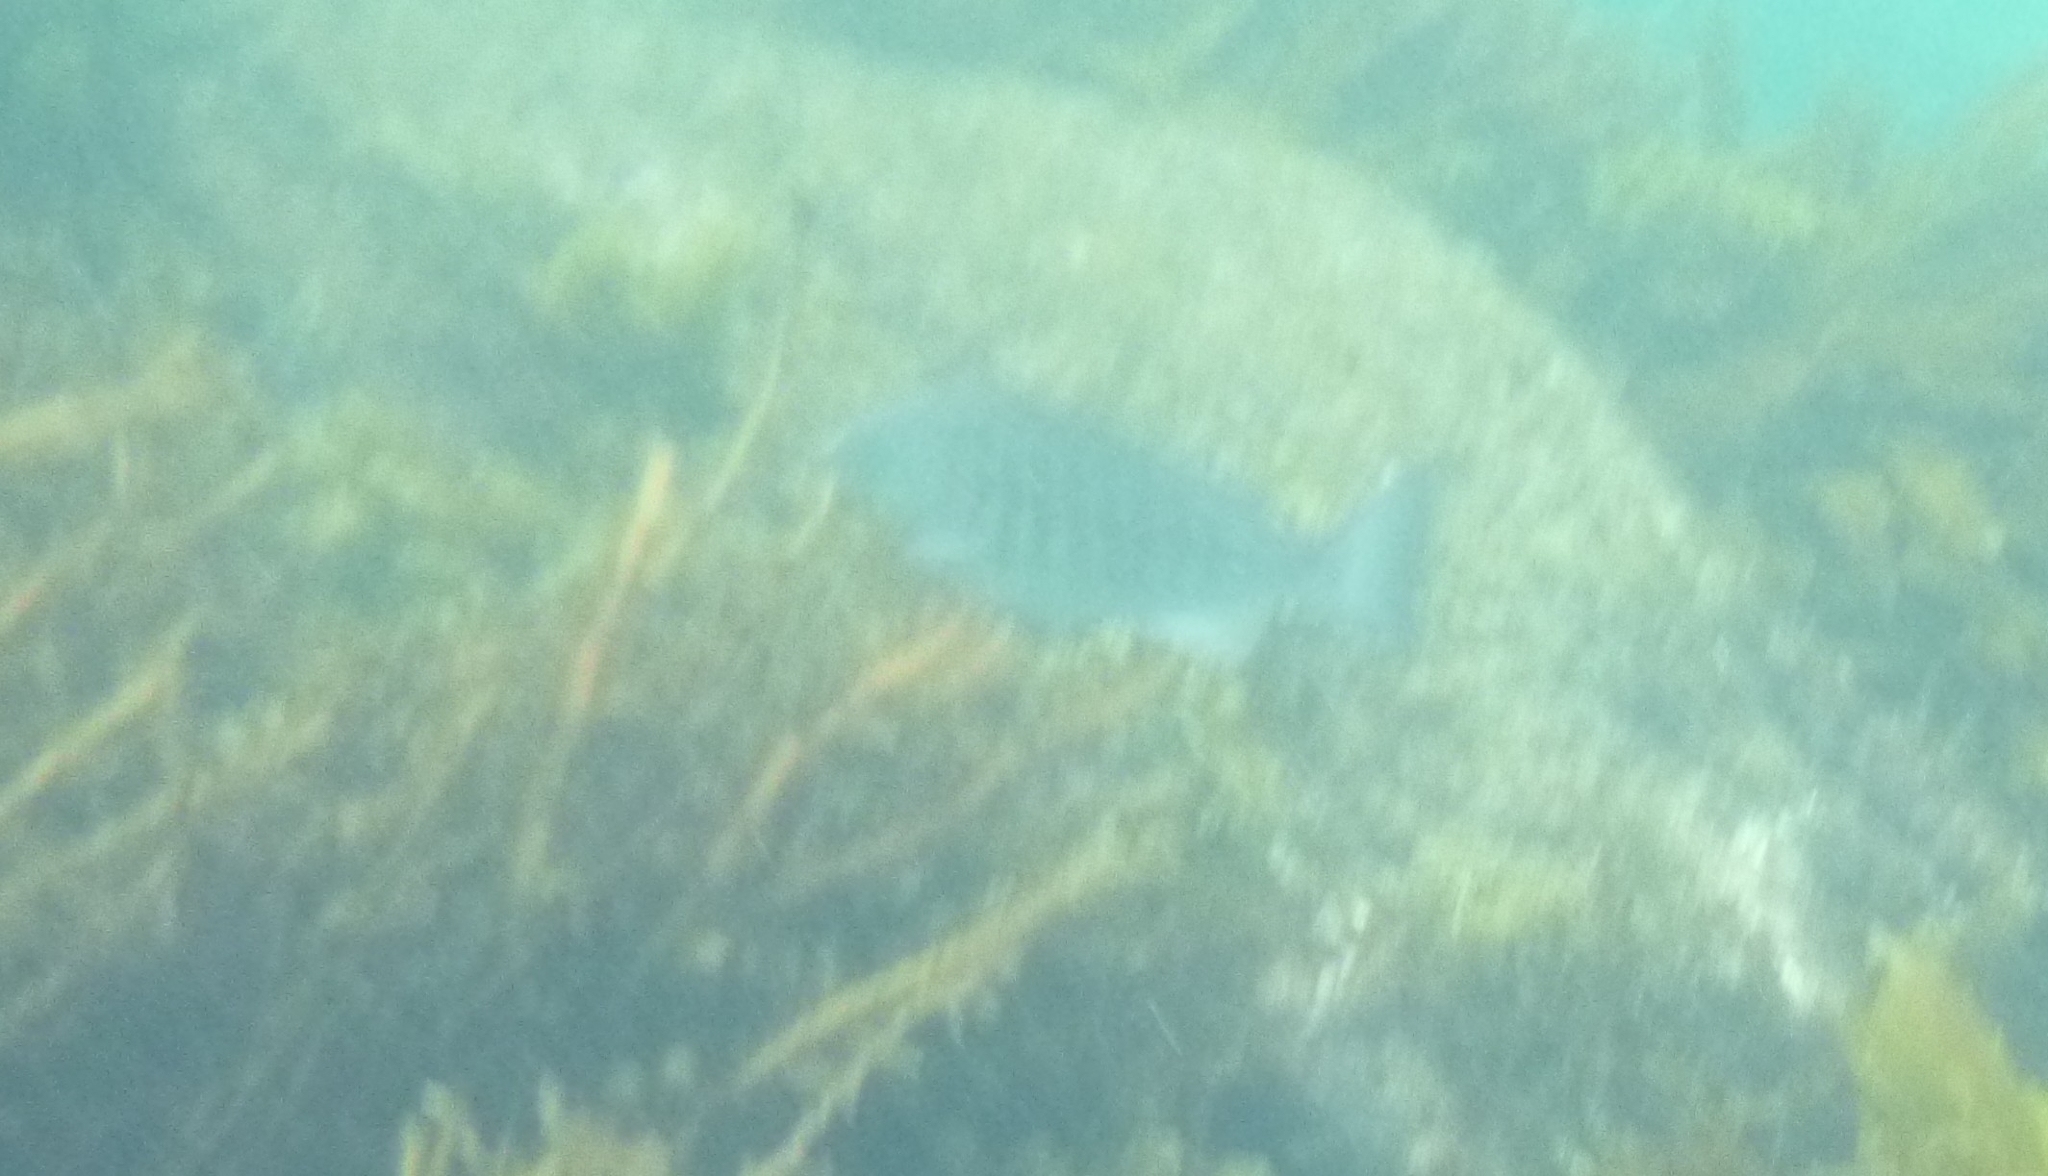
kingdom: Animalia
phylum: Chordata
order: Perciformes
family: Kyphosidae
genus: Girella
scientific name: Girella tricuspidata
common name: Parore
